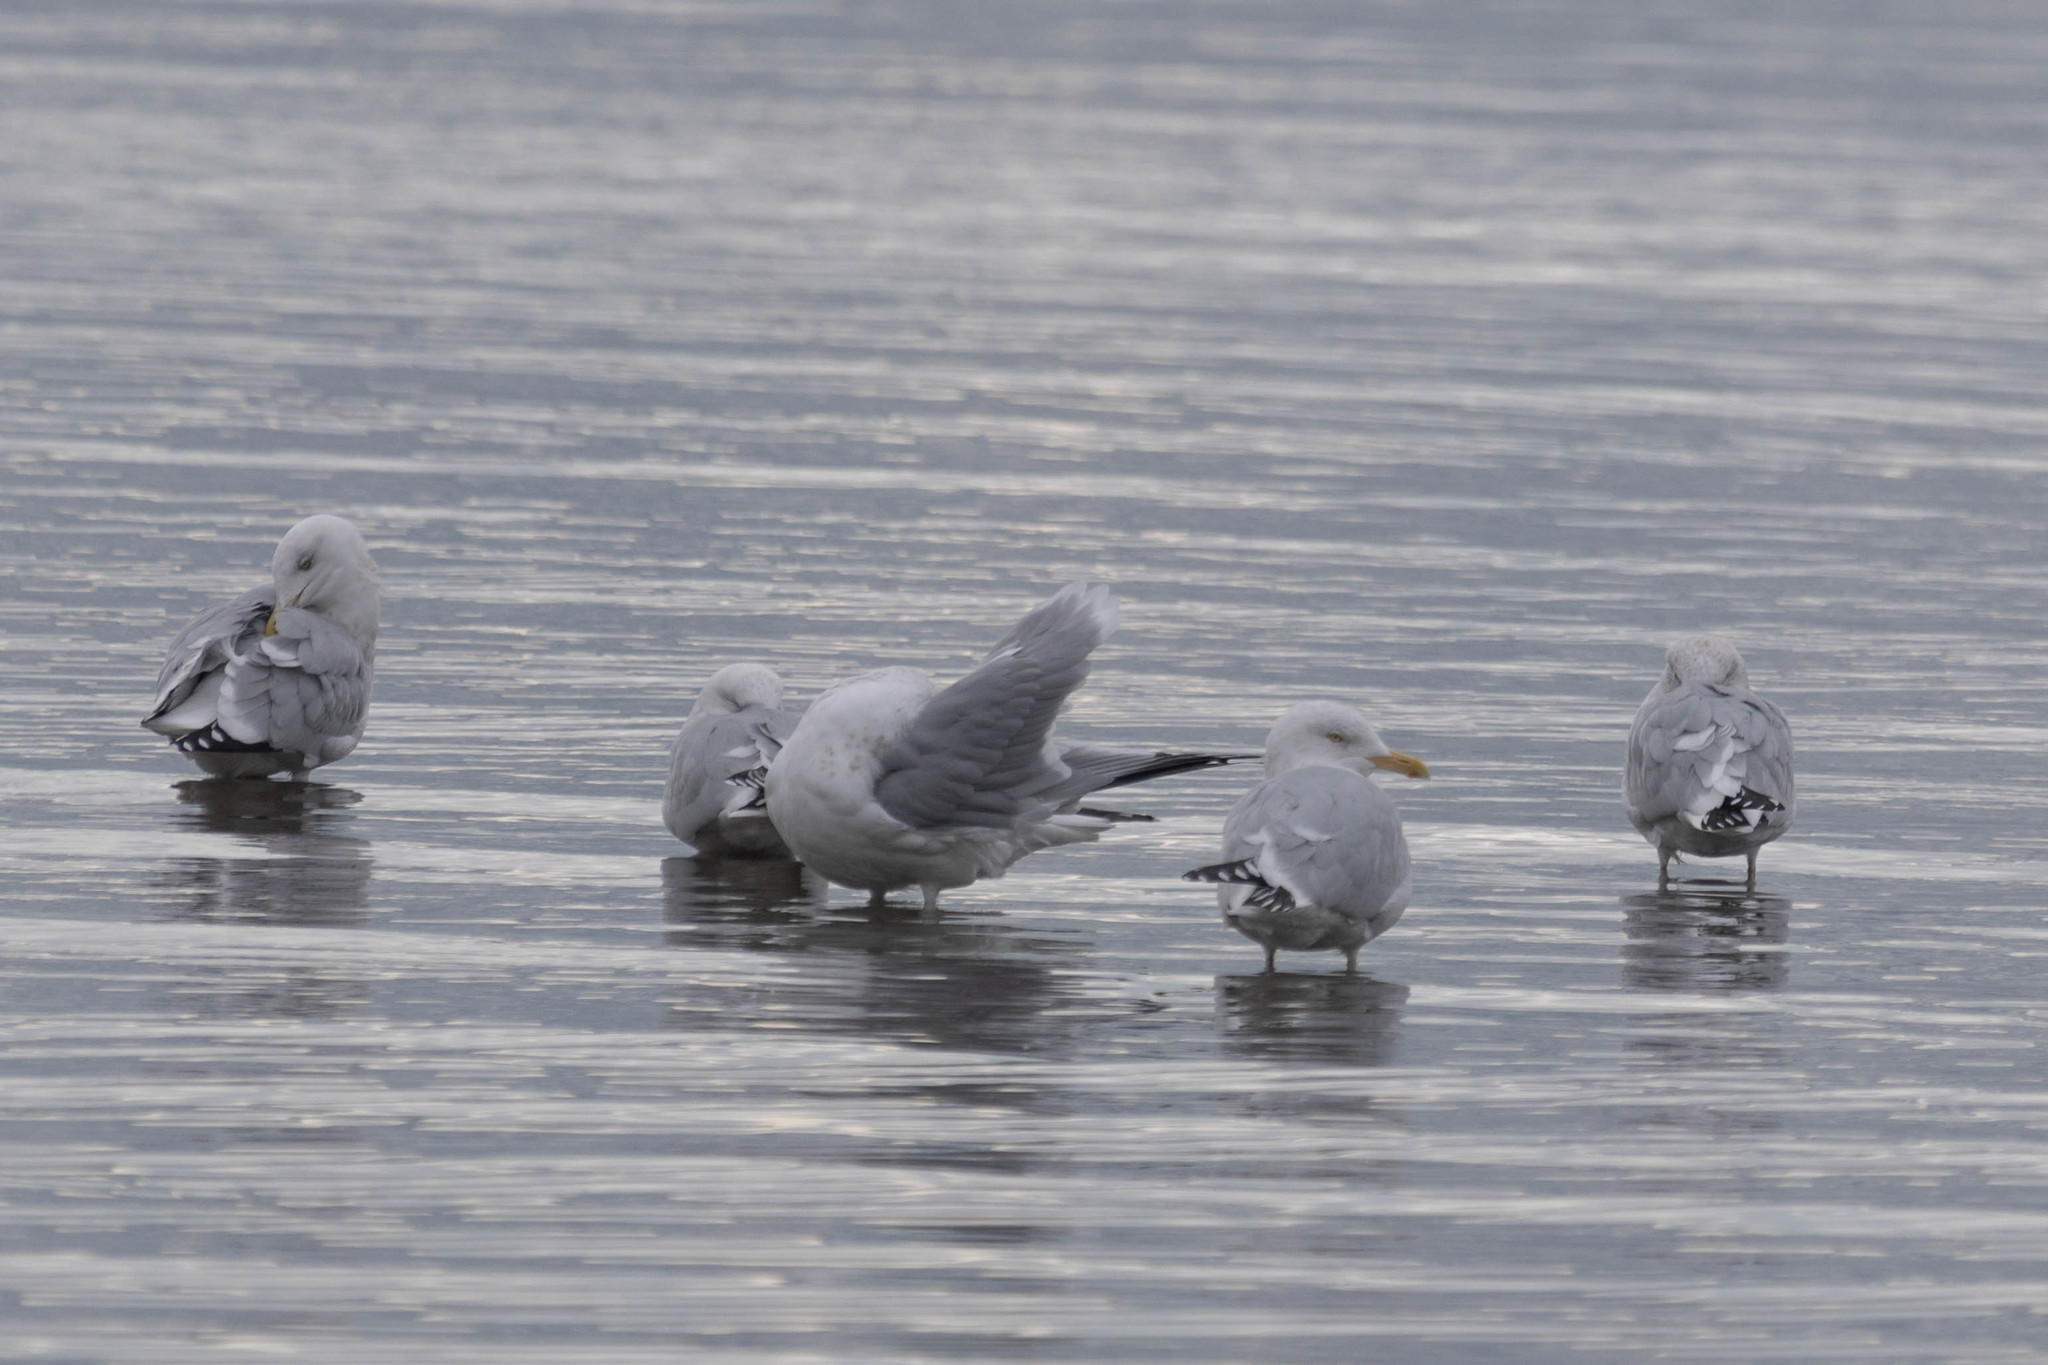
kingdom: Animalia
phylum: Chordata
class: Aves
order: Charadriiformes
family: Laridae
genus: Larus
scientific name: Larus argentatus
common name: Herring gull
